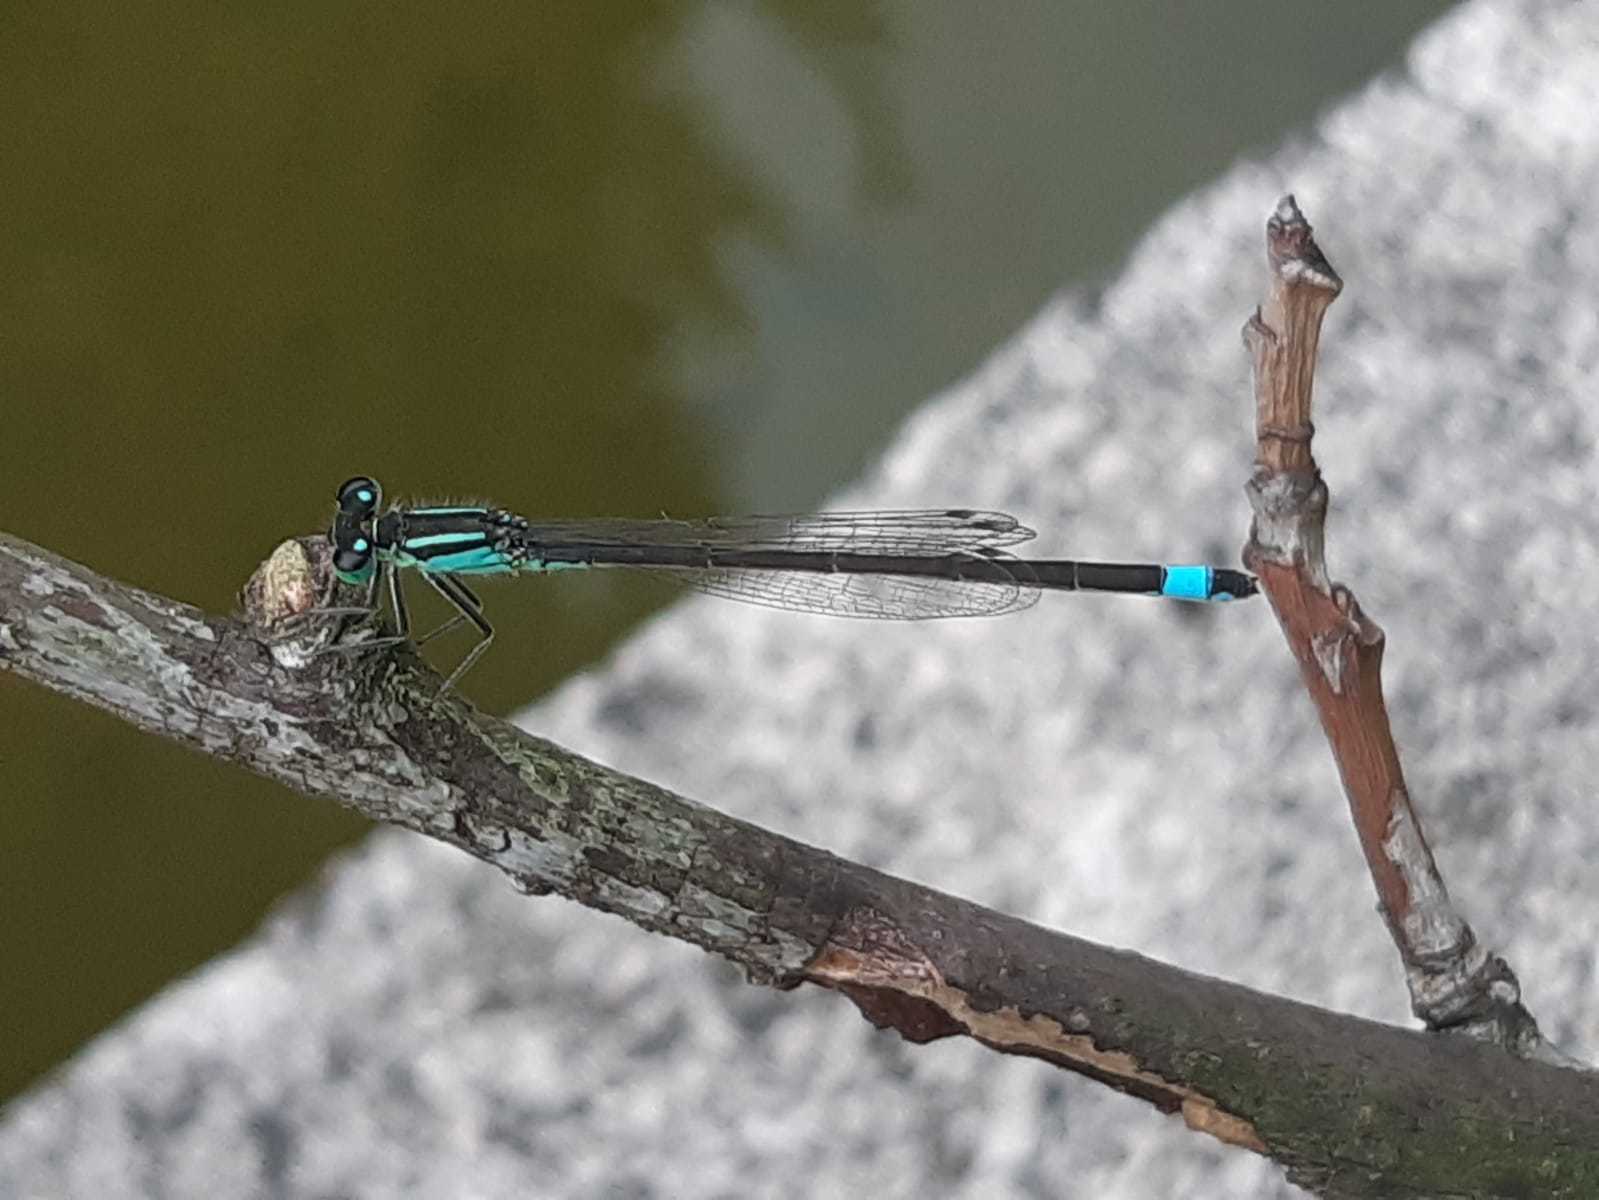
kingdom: Animalia
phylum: Arthropoda
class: Insecta
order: Odonata
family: Coenagrionidae
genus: Ischnura
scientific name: Ischnura elegans
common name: Blue-tailed damselfly
